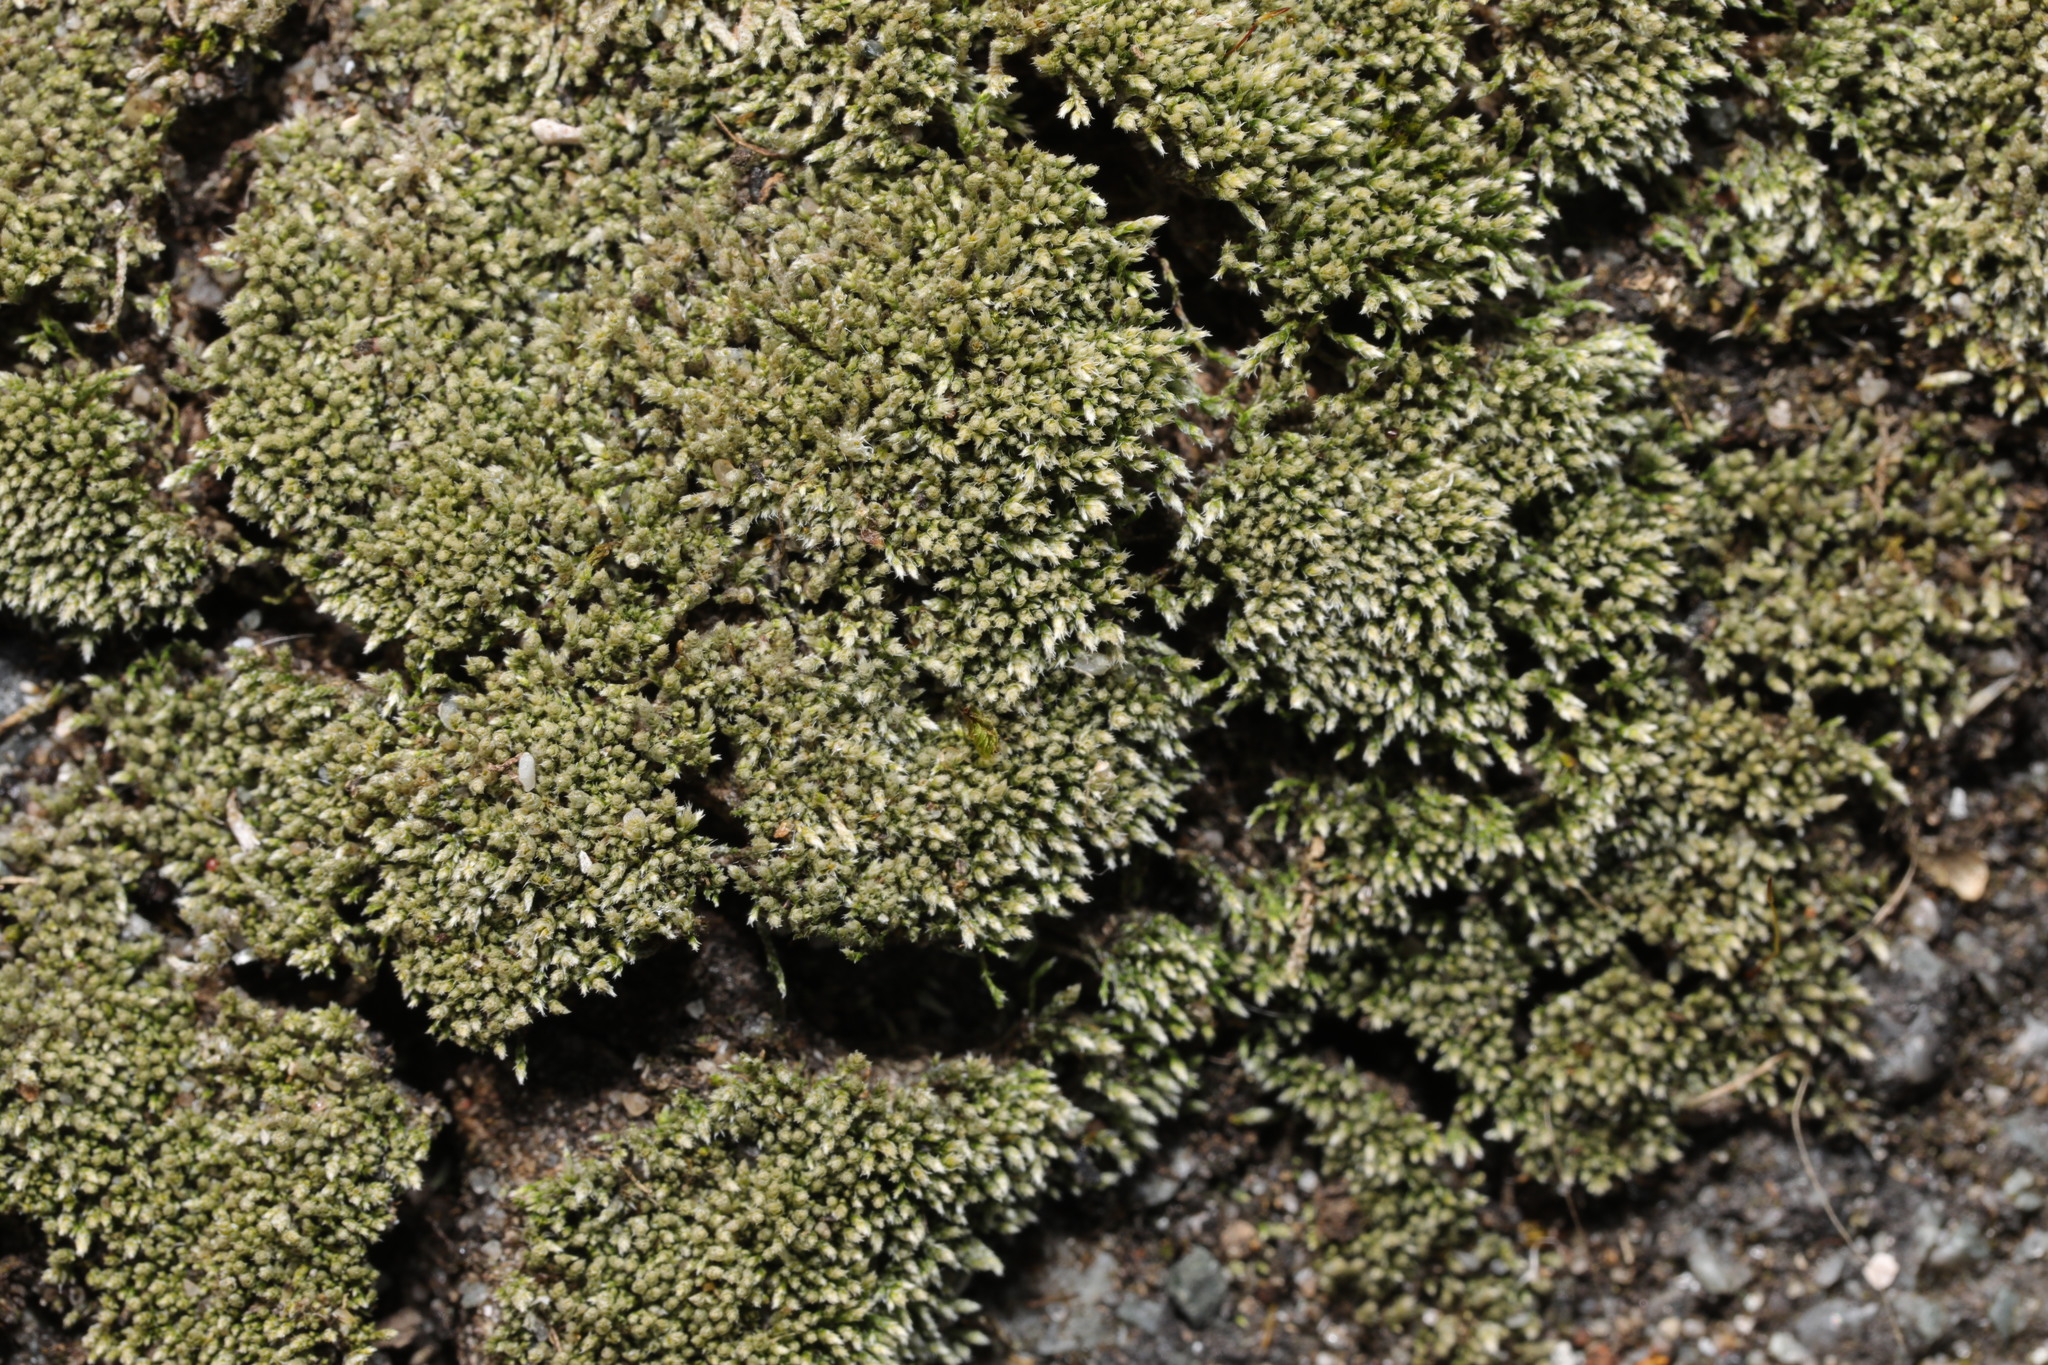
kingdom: Plantae
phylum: Bryophyta
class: Bryopsida
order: Bryales
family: Bryaceae
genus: Bryum
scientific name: Bryum argenteum
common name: Silver-moss
